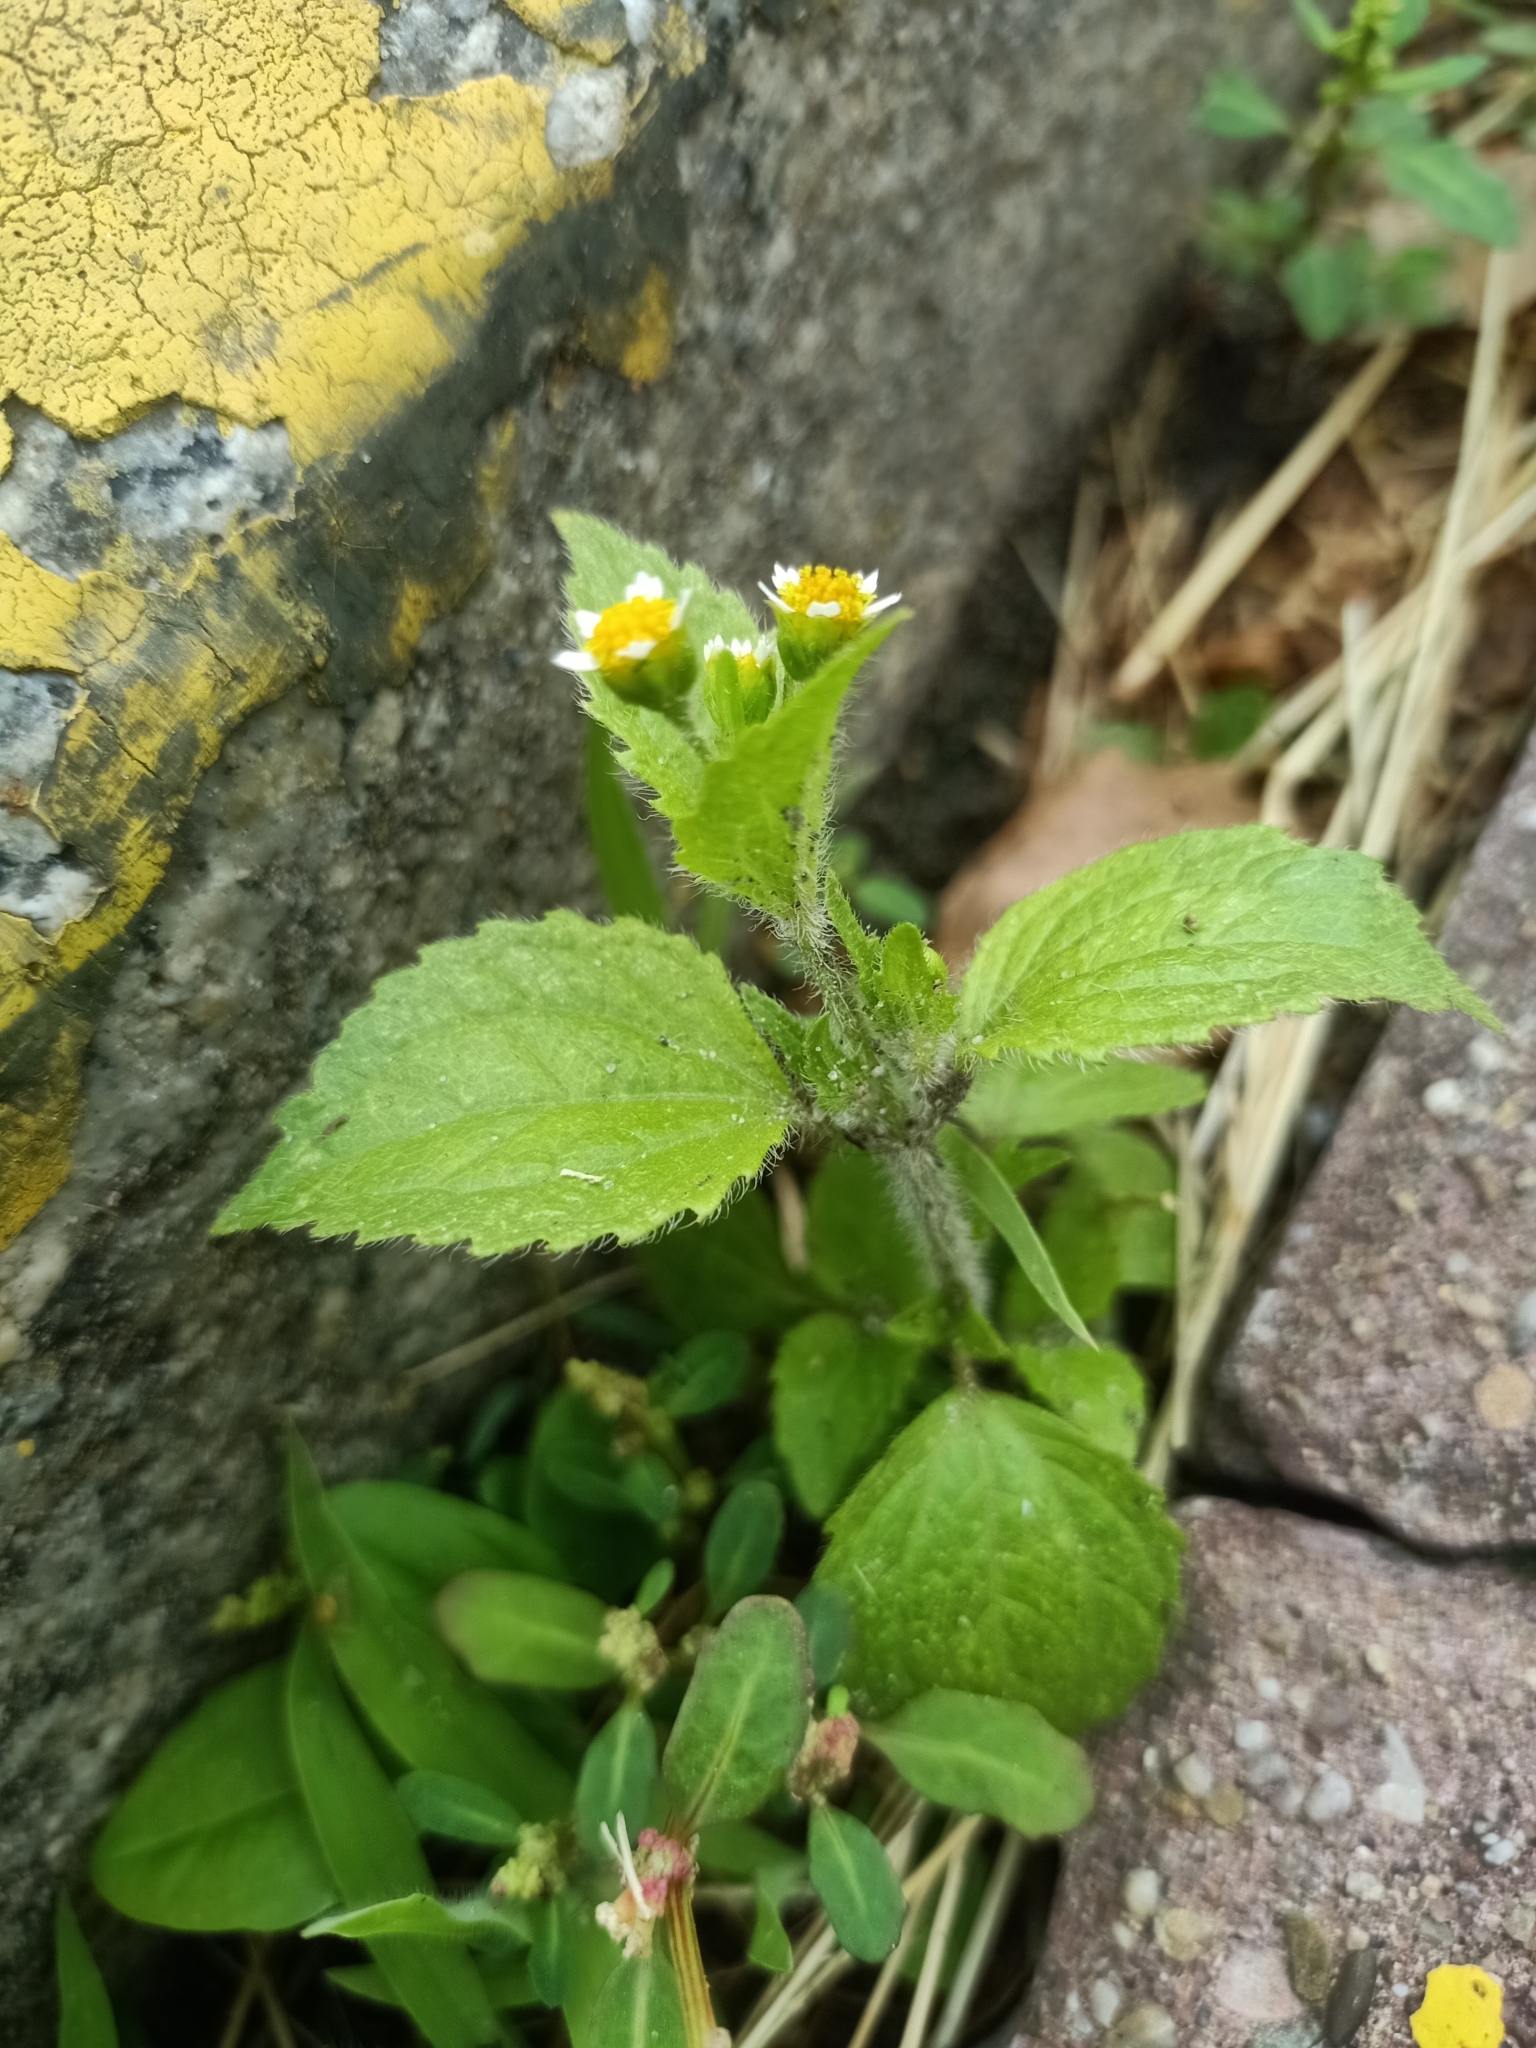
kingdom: Plantae
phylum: Tracheophyta
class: Magnoliopsida
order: Asterales
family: Asteraceae
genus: Galinsoga
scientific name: Galinsoga quadriradiata
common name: Shaggy soldier
